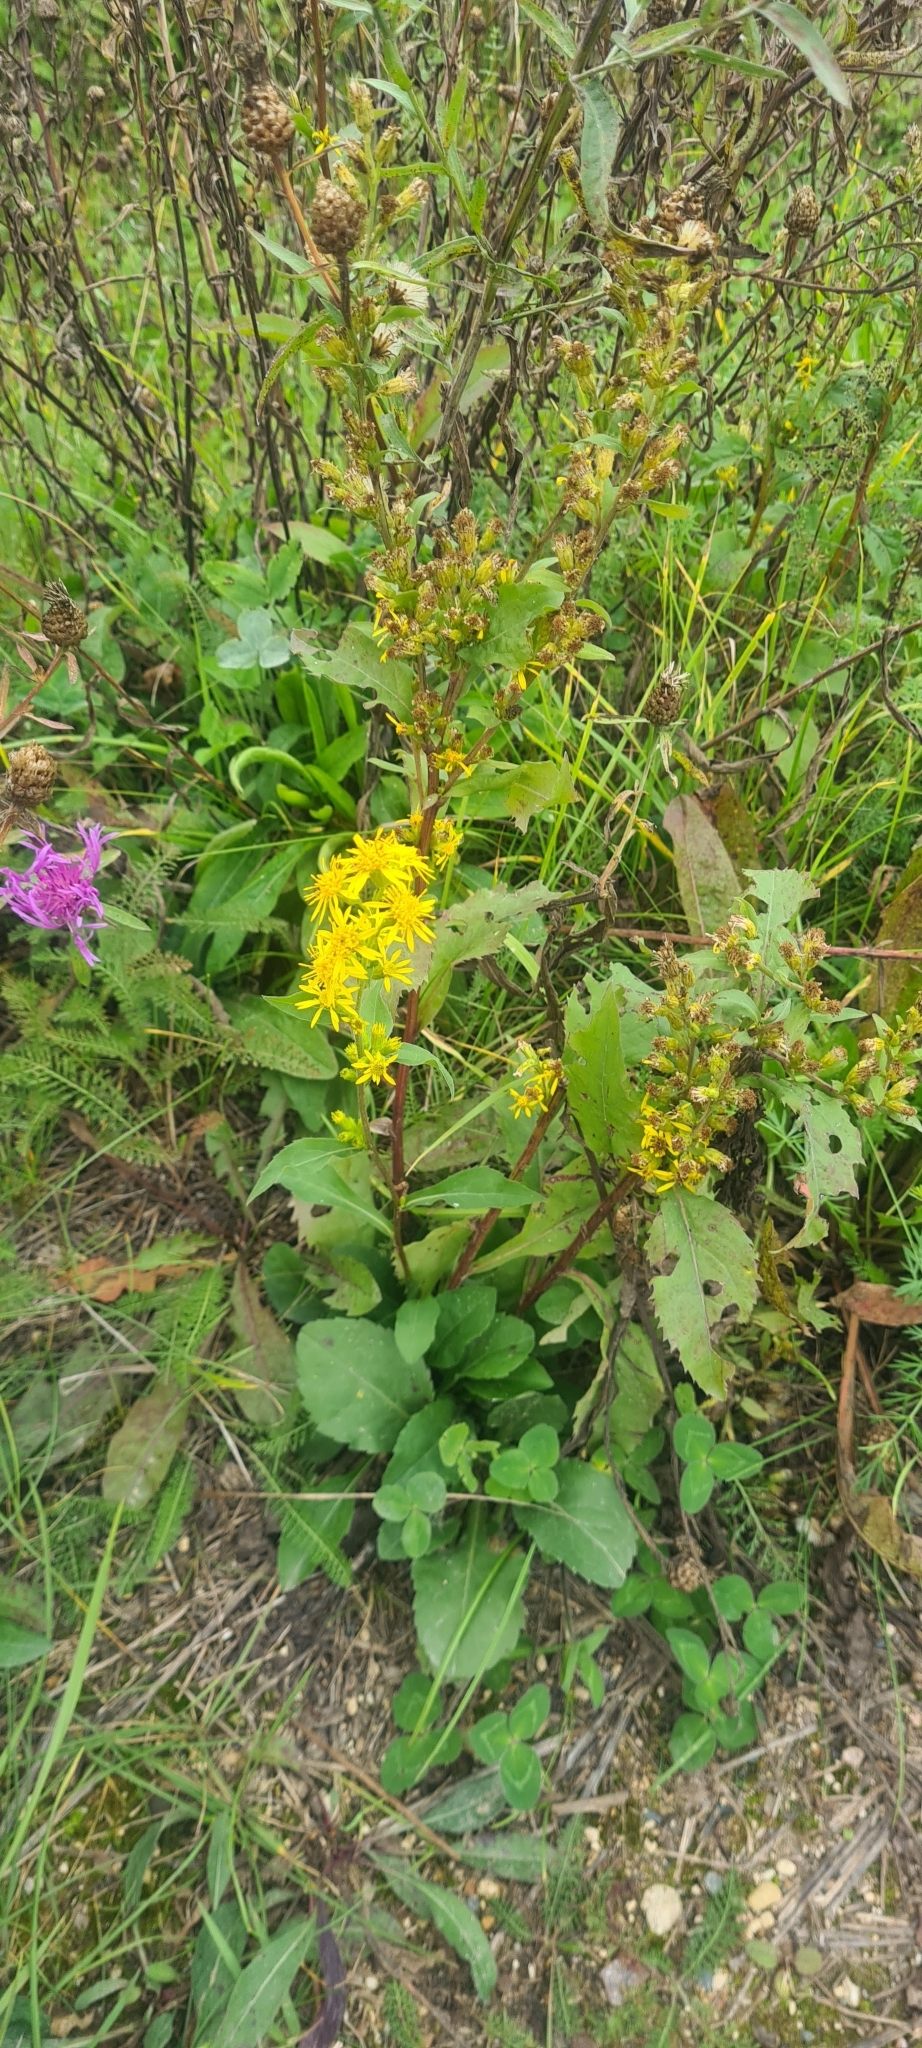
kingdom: Plantae
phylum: Tracheophyta
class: Magnoliopsida
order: Asterales
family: Asteraceae
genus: Solidago
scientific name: Solidago virgaurea
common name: Goldenrod
